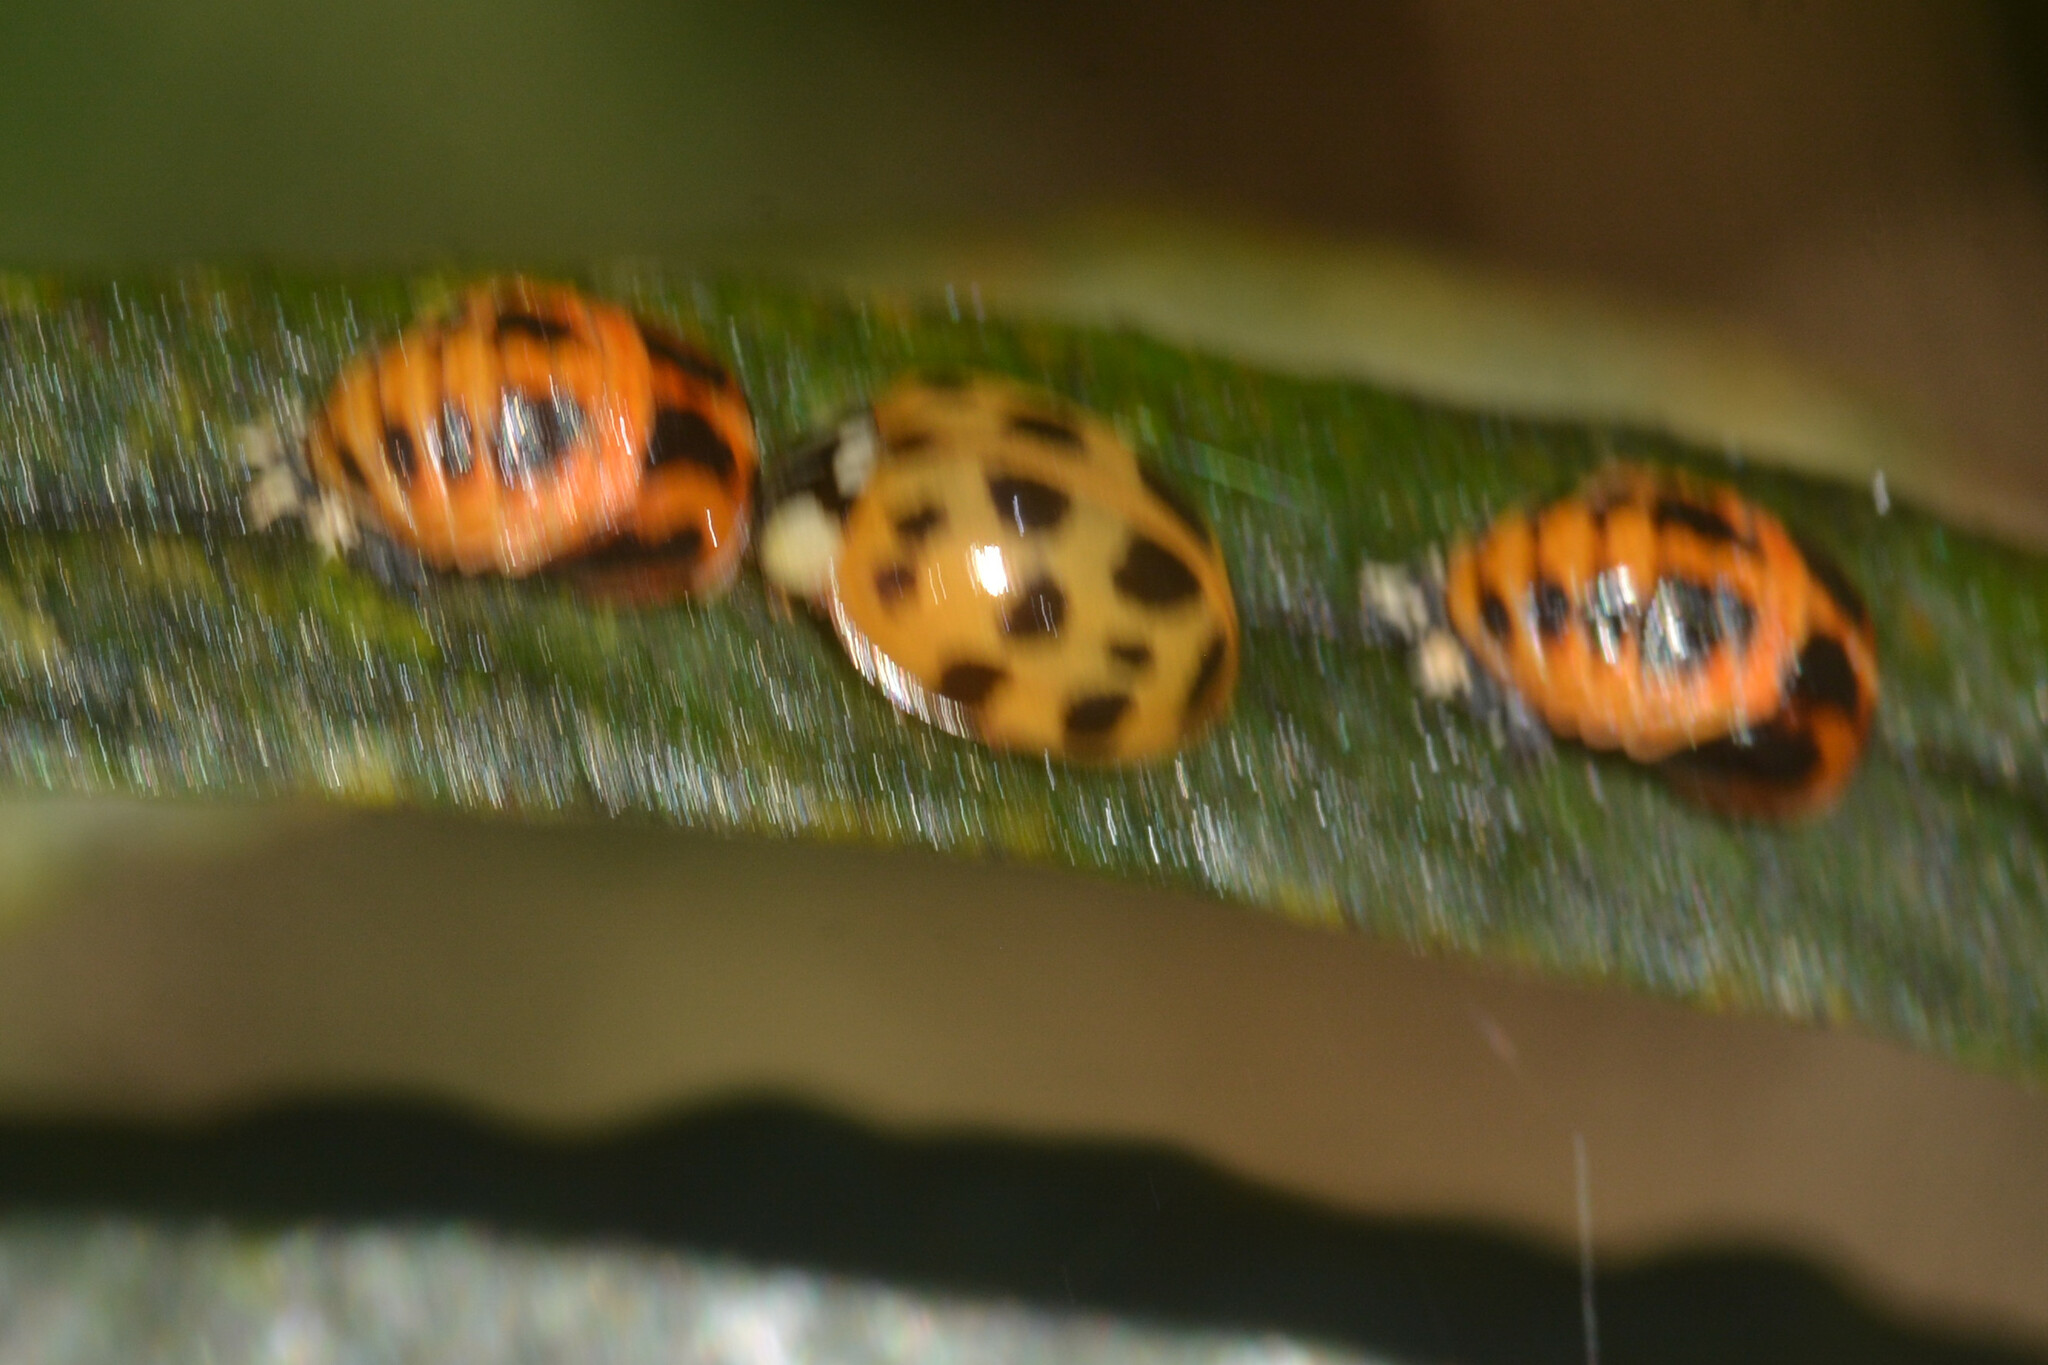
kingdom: Animalia
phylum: Arthropoda
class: Insecta
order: Coleoptera
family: Coccinellidae
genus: Harmonia
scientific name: Harmonia axyridis
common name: Harlequin ladybird
